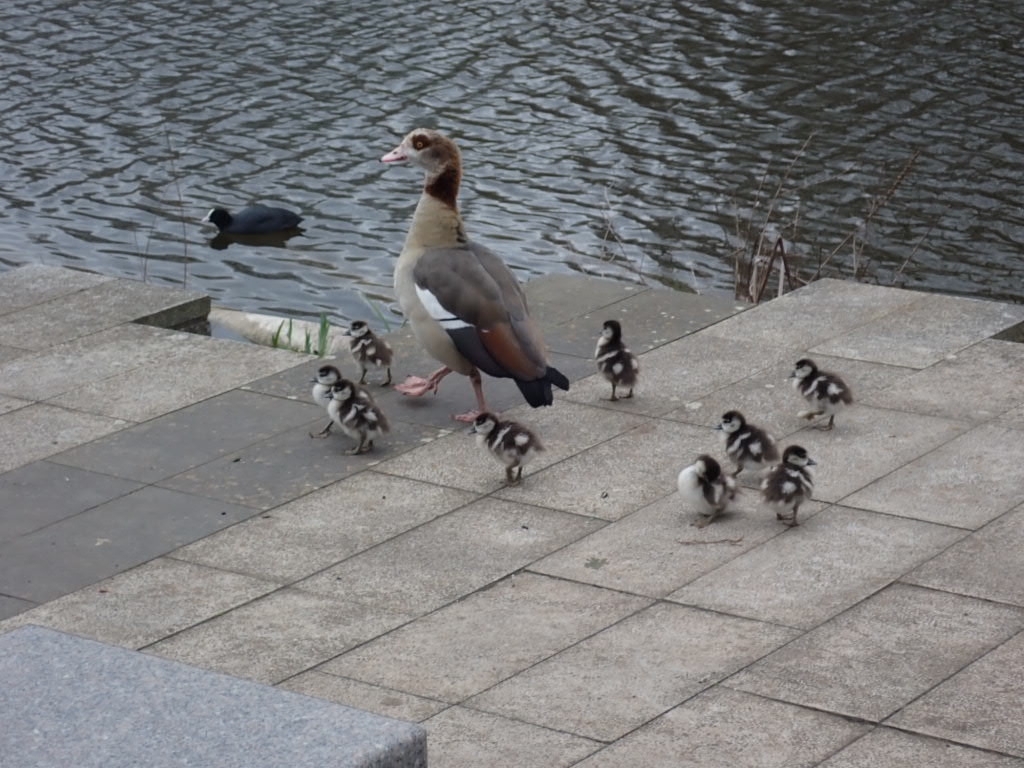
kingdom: Animalia
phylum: Chordata
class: Aves
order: Anseriformes
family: Anatidae
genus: Alopochen
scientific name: Alopochen aegyptiaca
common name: Egyptian goose
